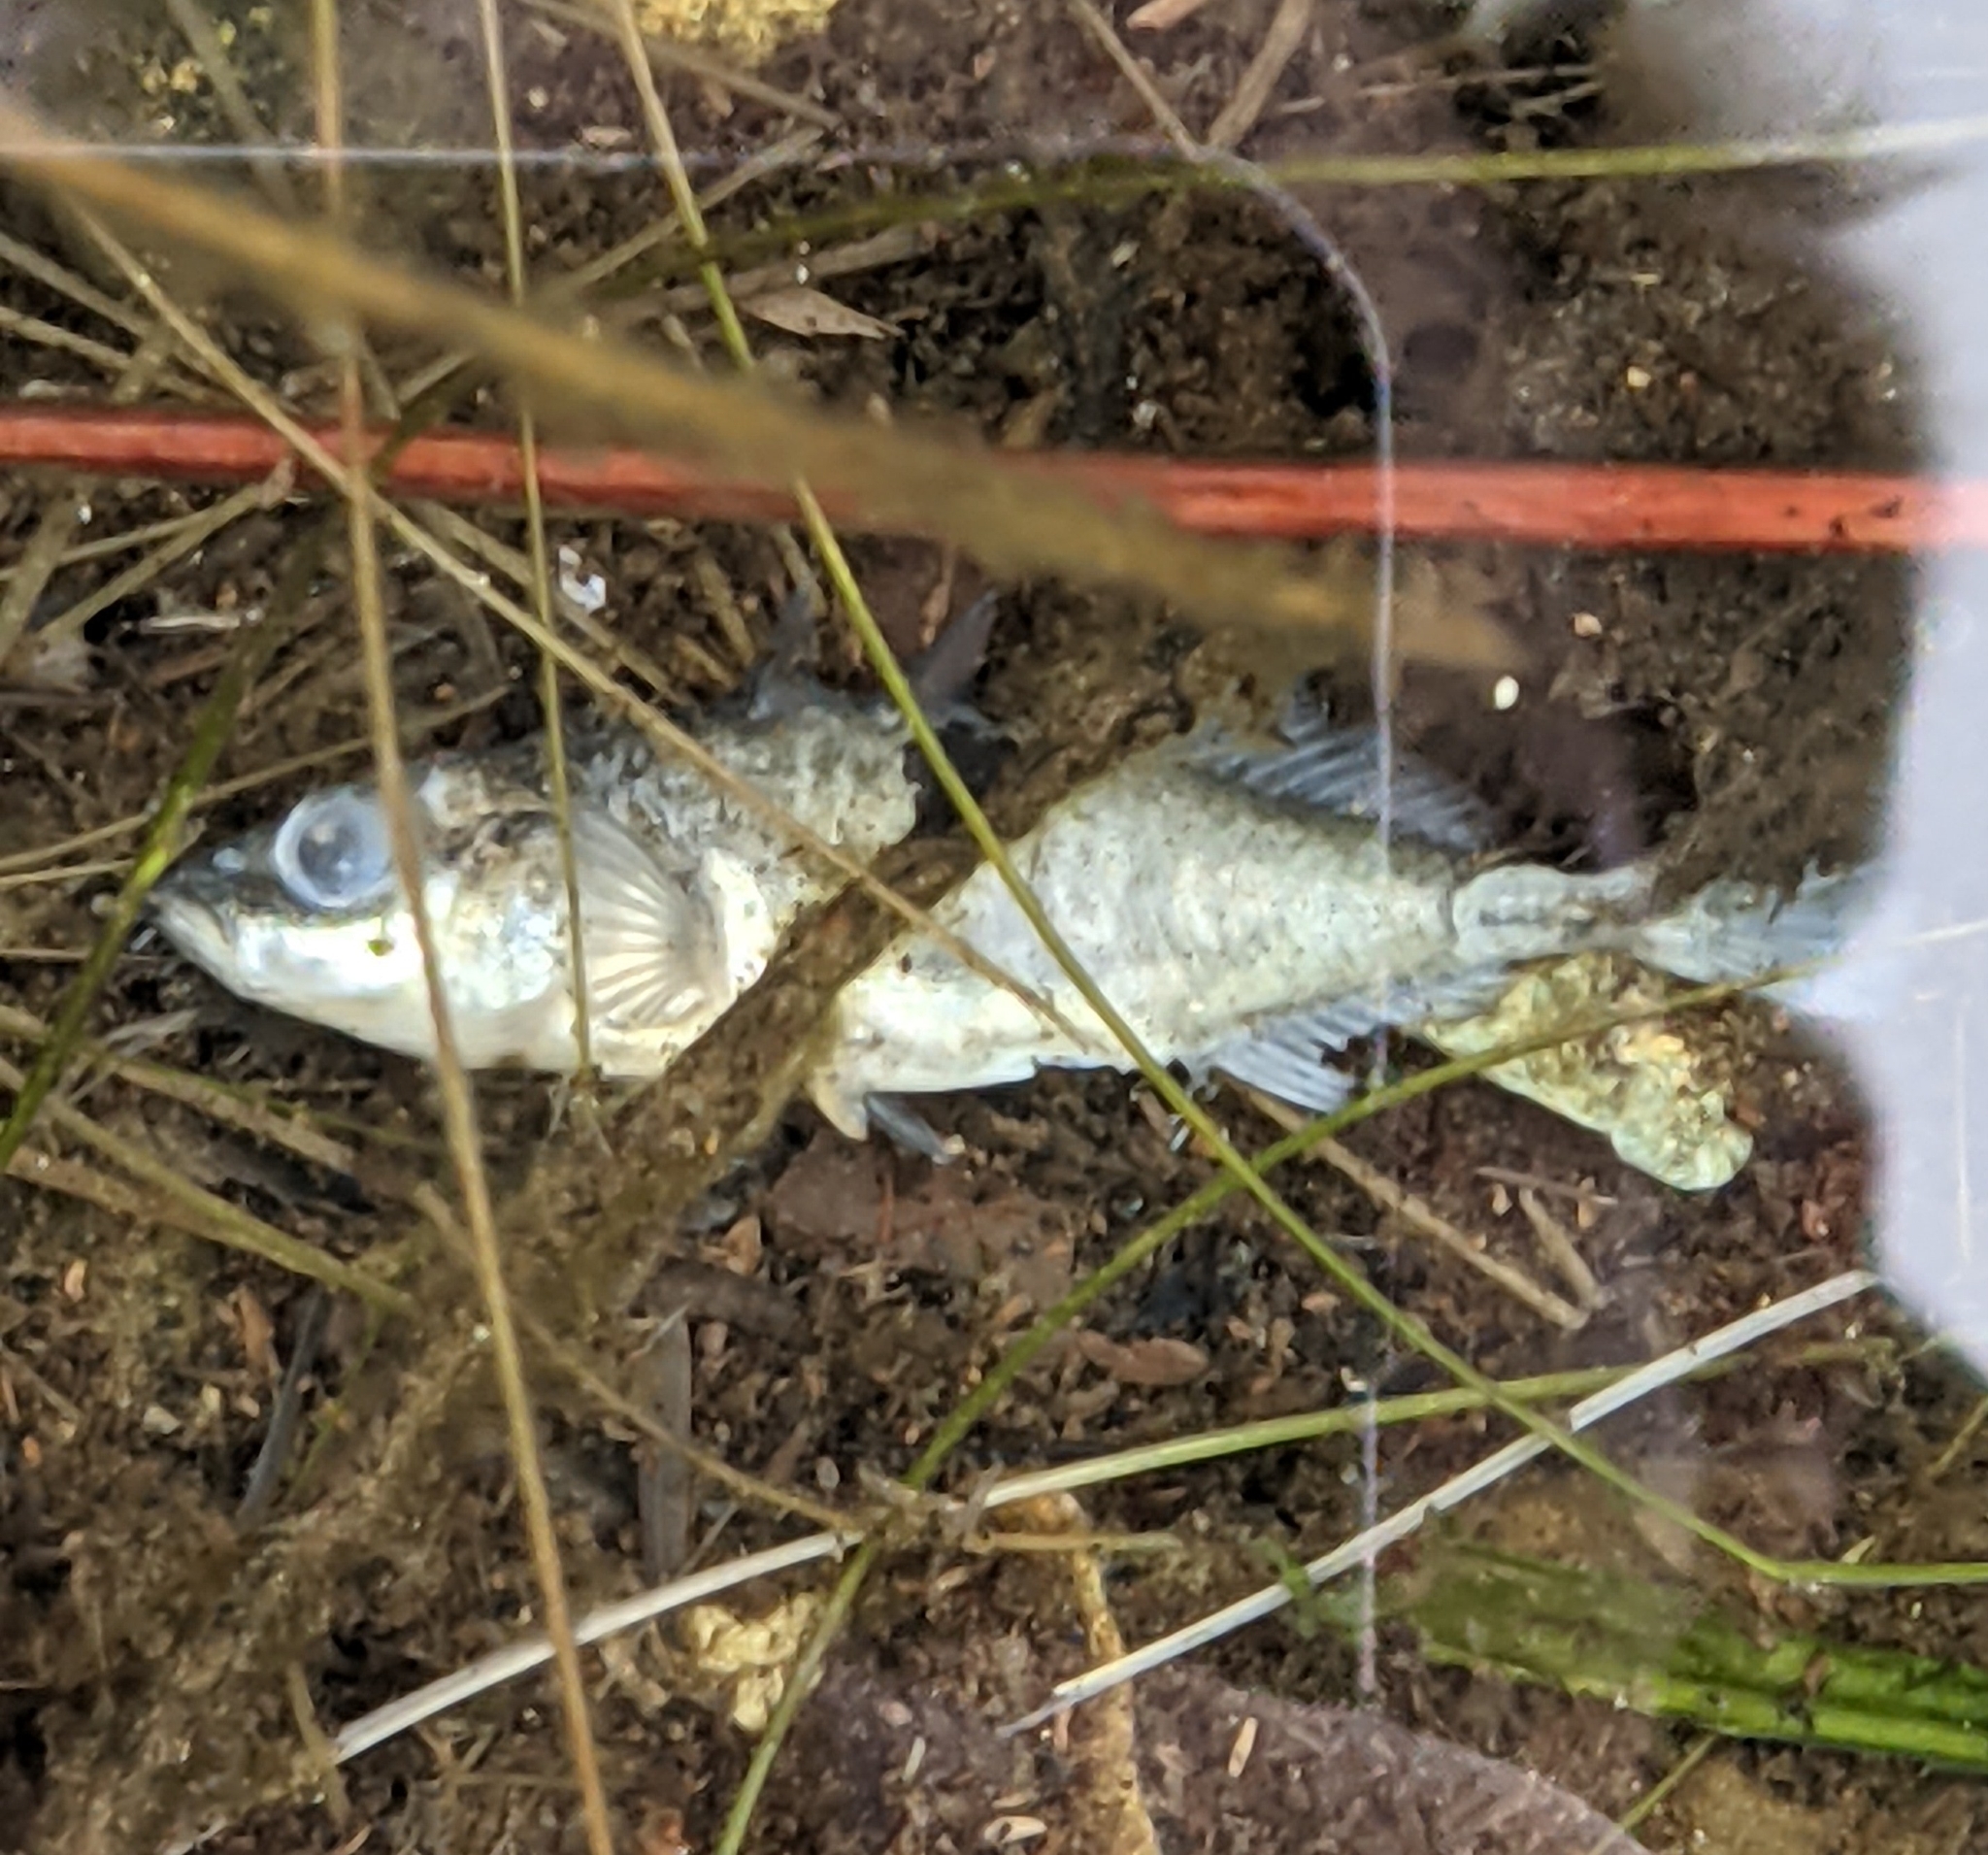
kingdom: Animalia
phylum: Chordata
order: Gasterosteiformes
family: Gasterosteidae
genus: Gasterosteus
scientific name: Gasterosteus aculeatus
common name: Three-spined stickleback
